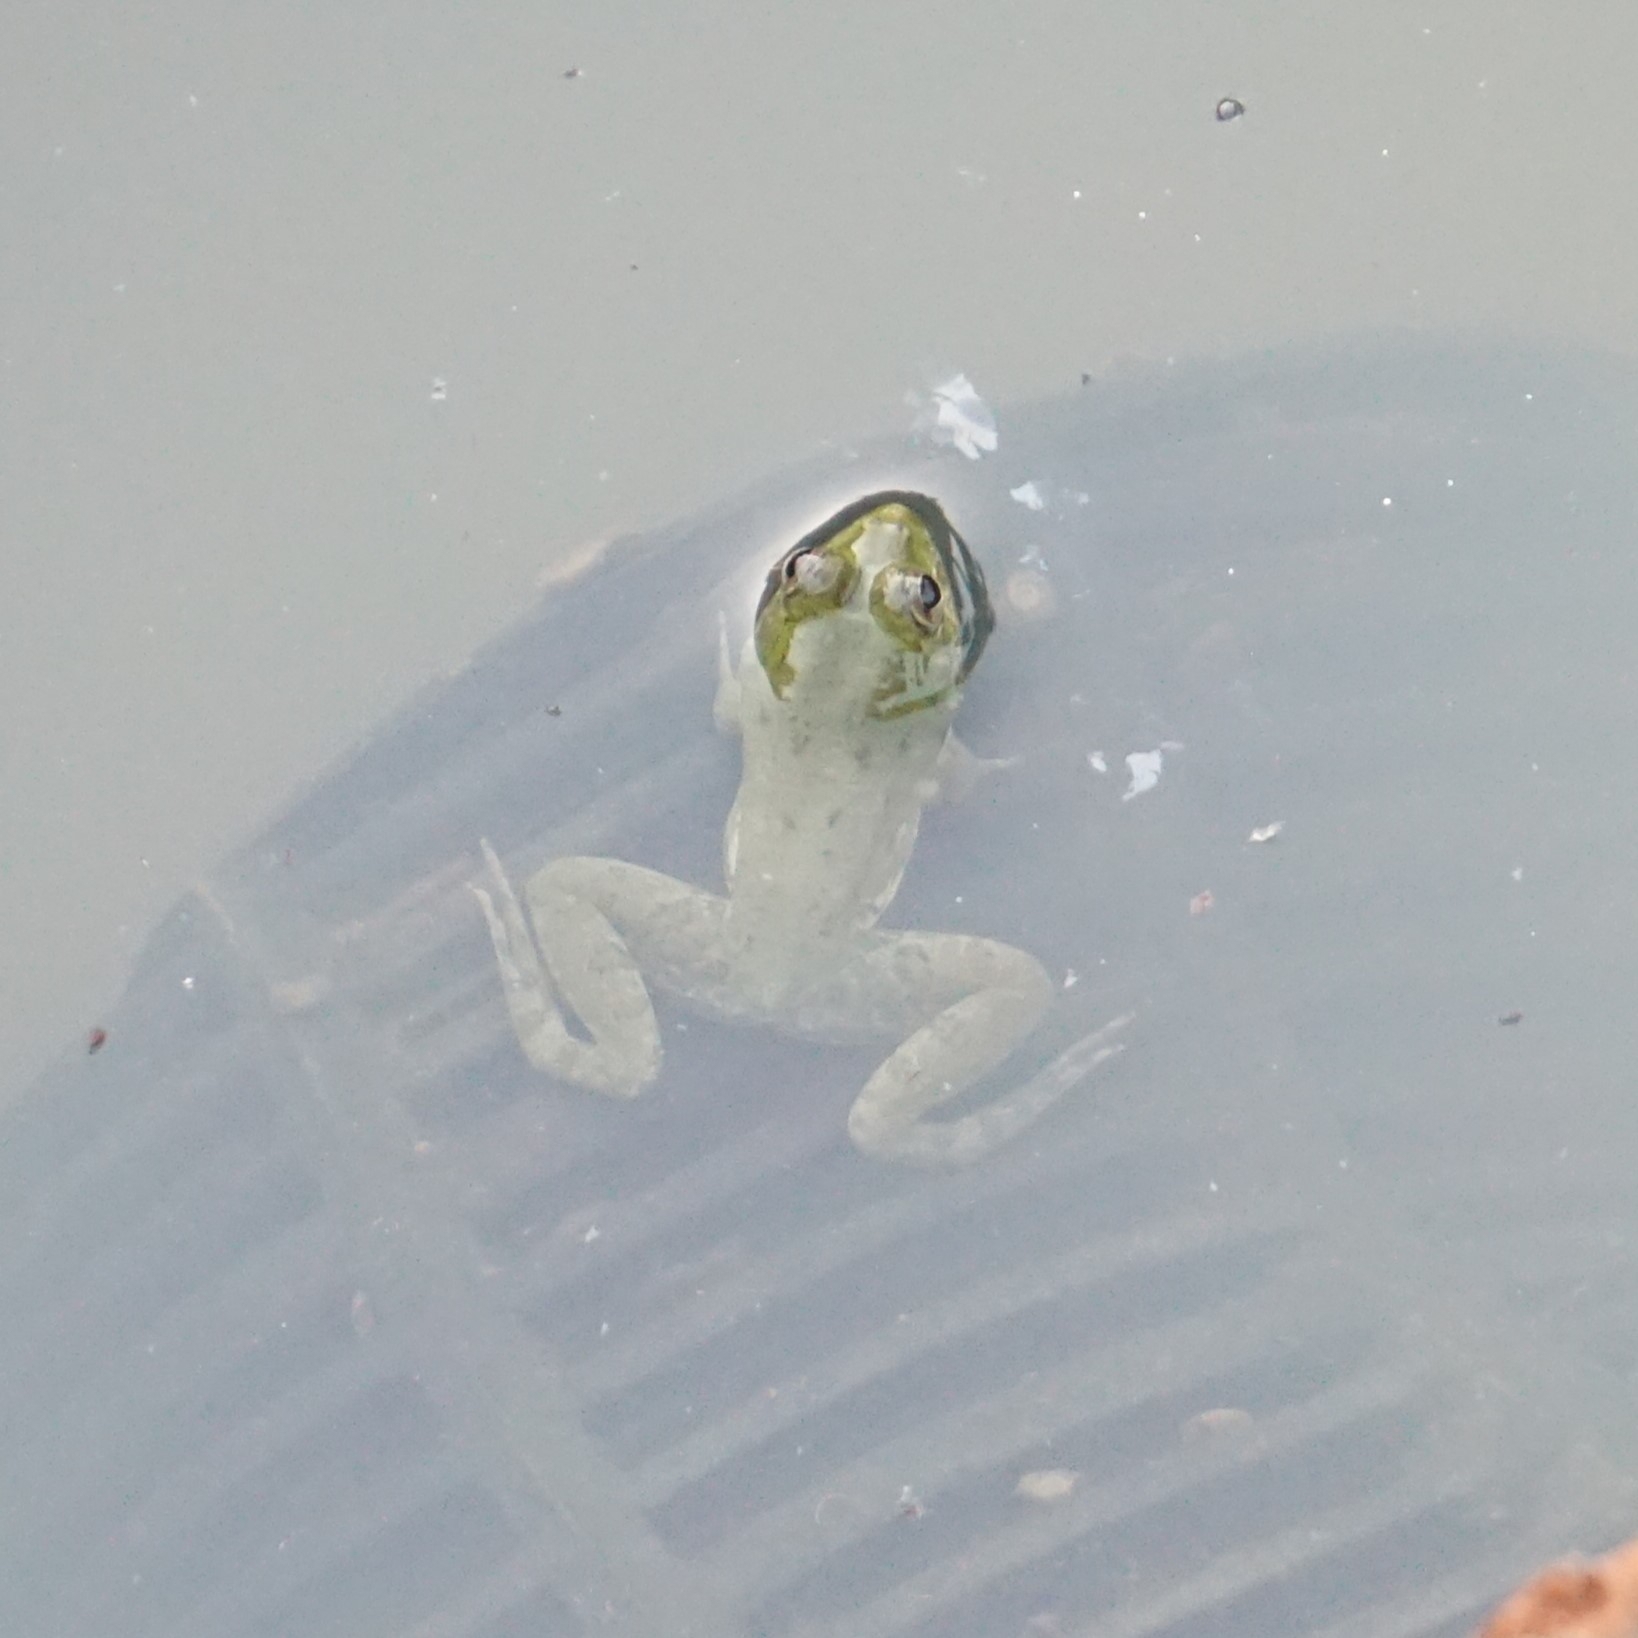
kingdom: Animalia
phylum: Chordata
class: Amphibia
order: Anura
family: Dicroglossidae
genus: Euphlyctis
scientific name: Euphlyctis cyanophlyctis
